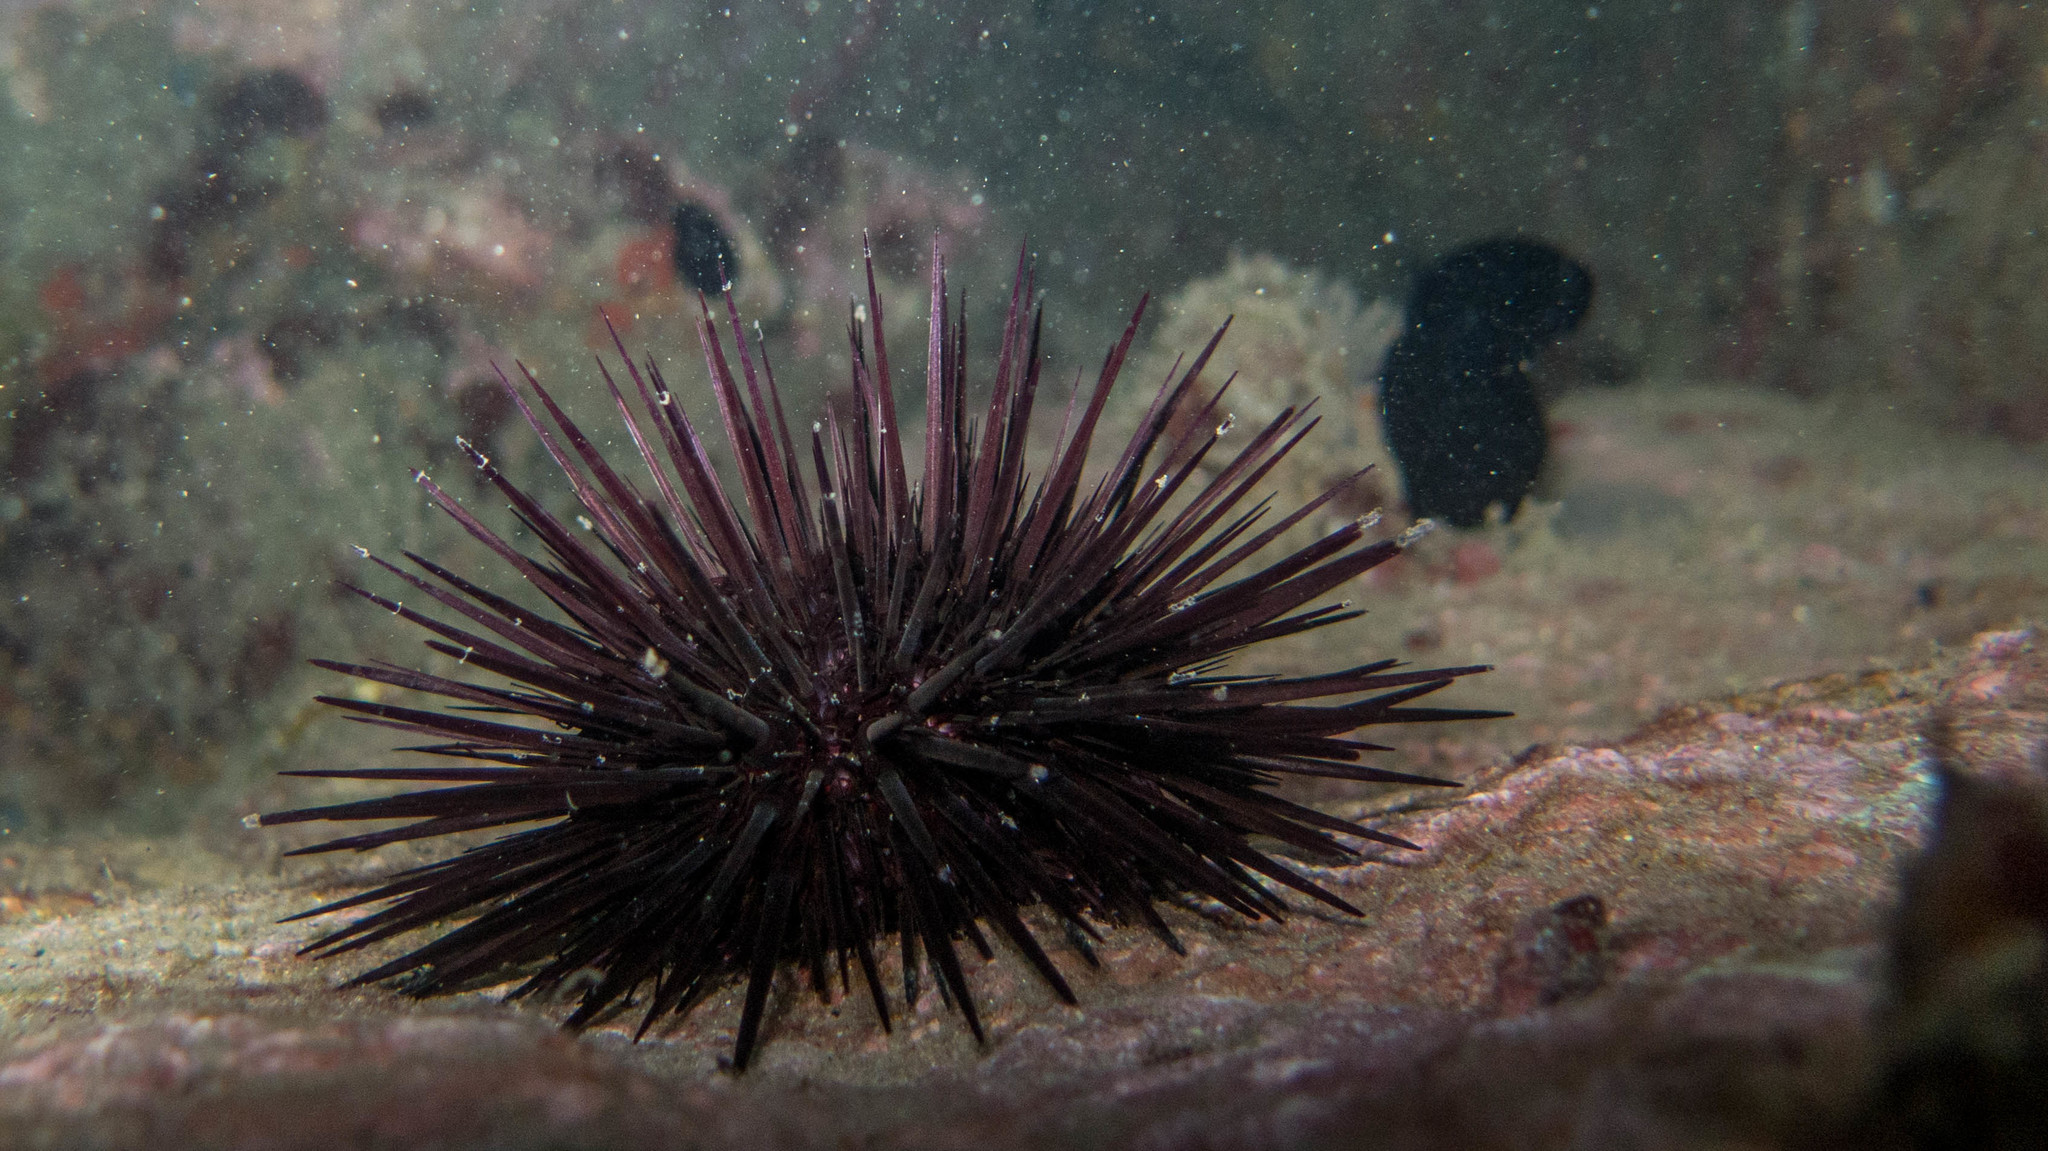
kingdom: Animalia
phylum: Echinodermata
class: Echinoidea
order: Camarodonta
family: Echinometridae
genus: Echinometra
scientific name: Echinometra lucunter
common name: Rock urchin
